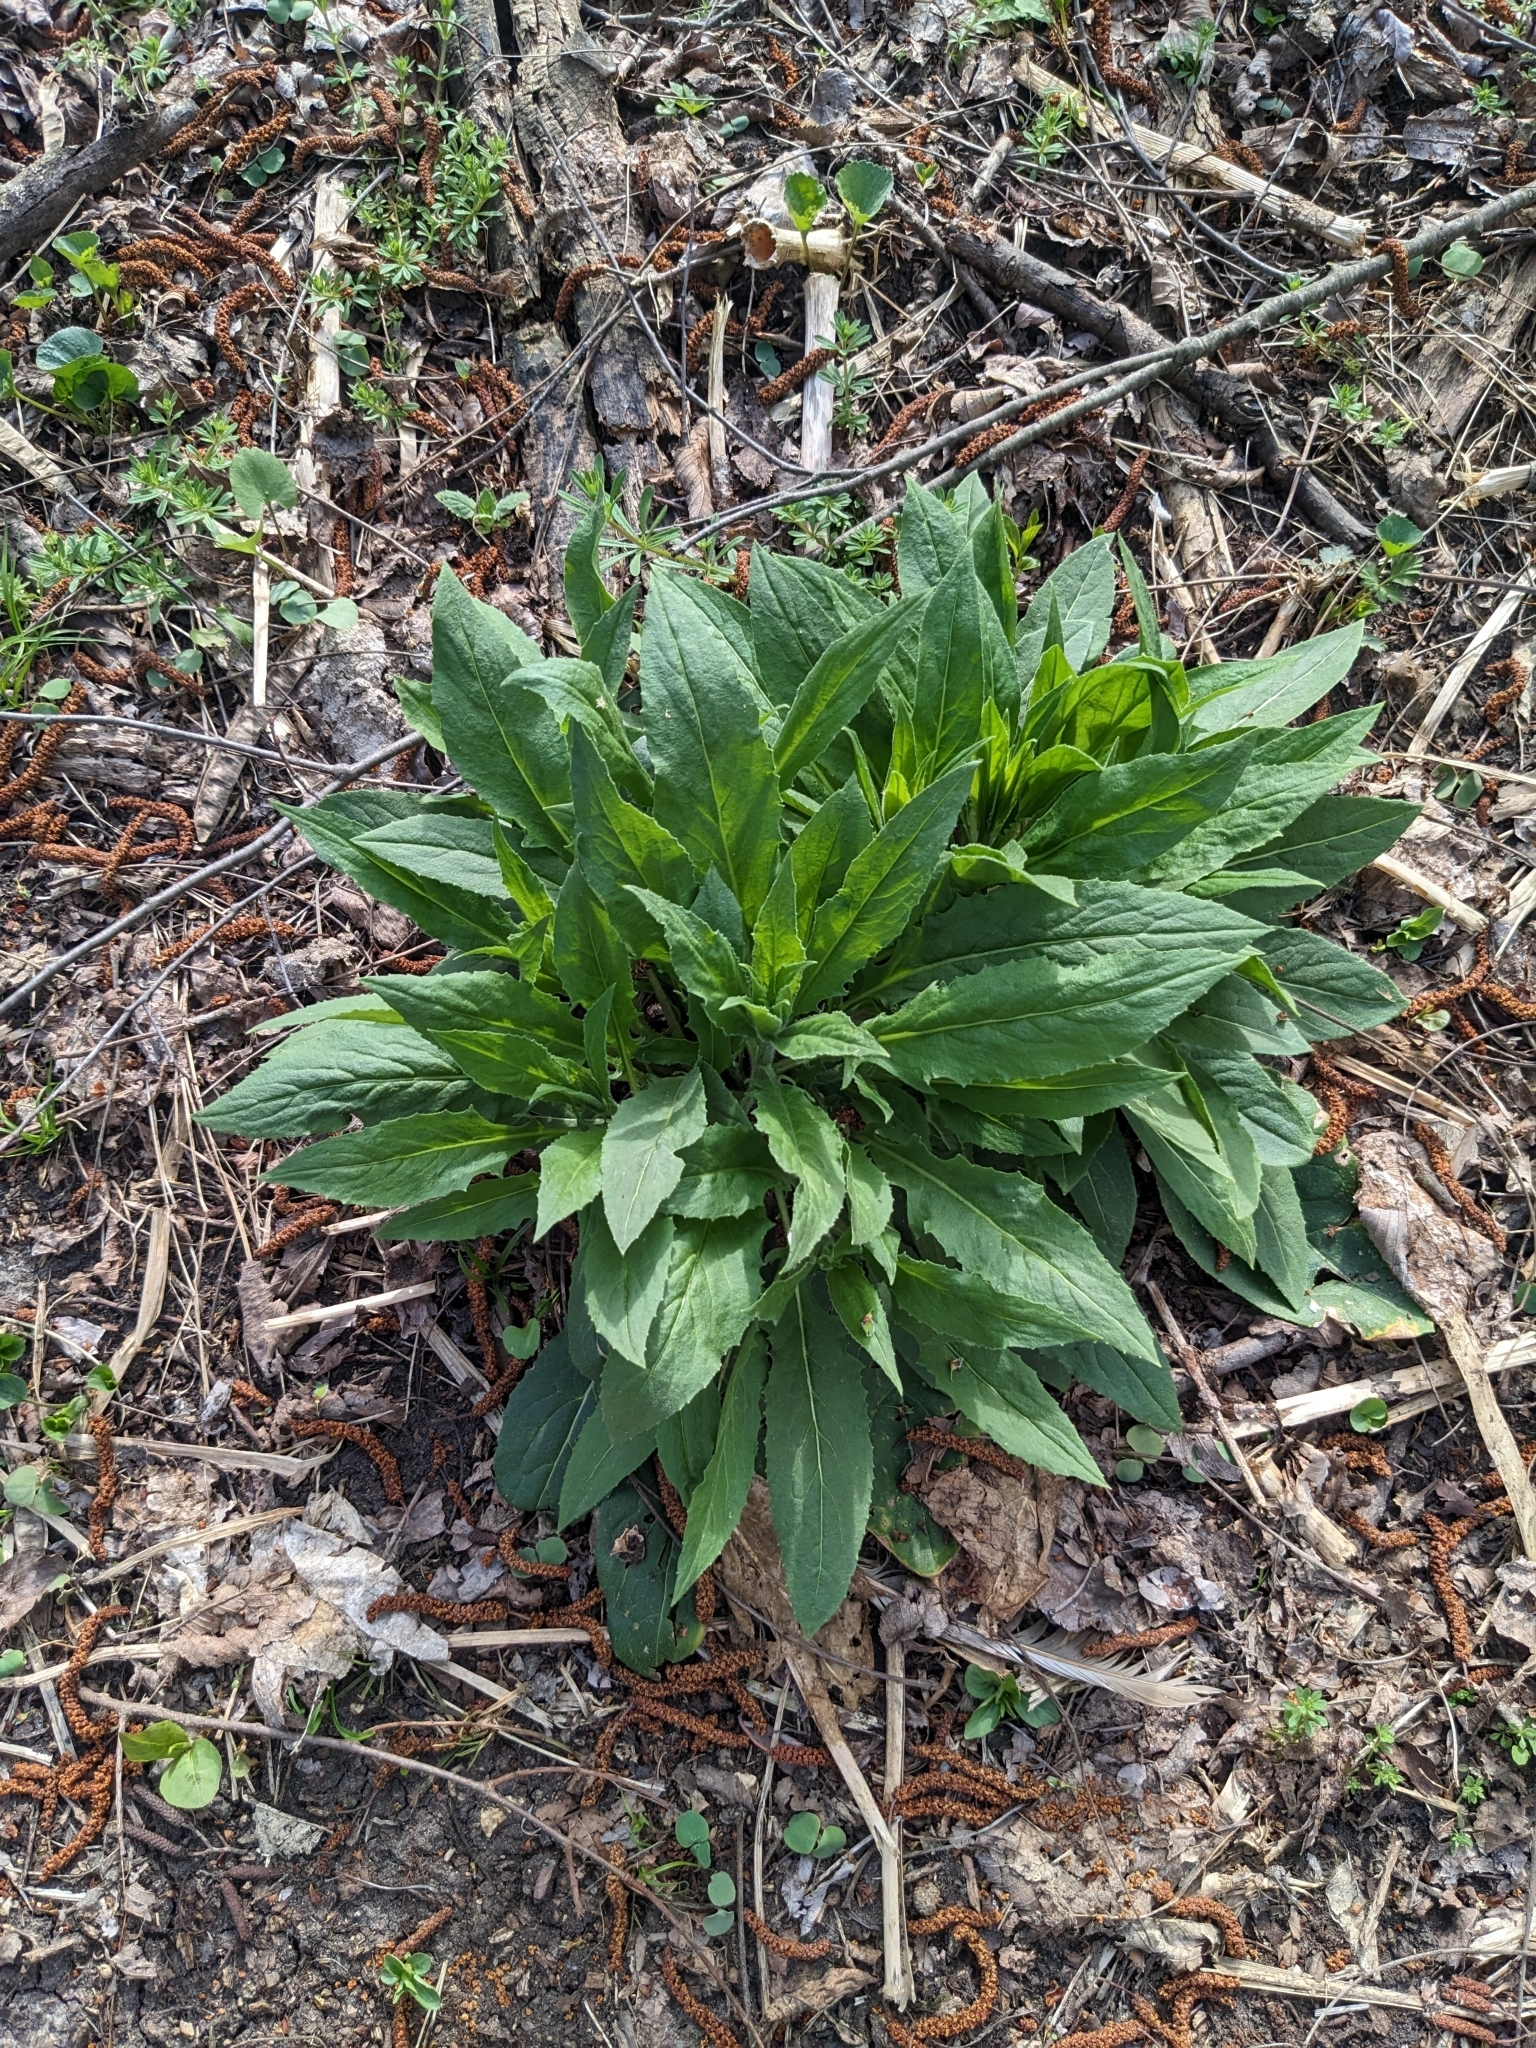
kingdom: Plantae
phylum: Tracheophyta
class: Magnoliopsida
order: Brassicales
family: Brassicaceae
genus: Hesperis
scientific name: Hesperis matronalis
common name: Dame's-violet
